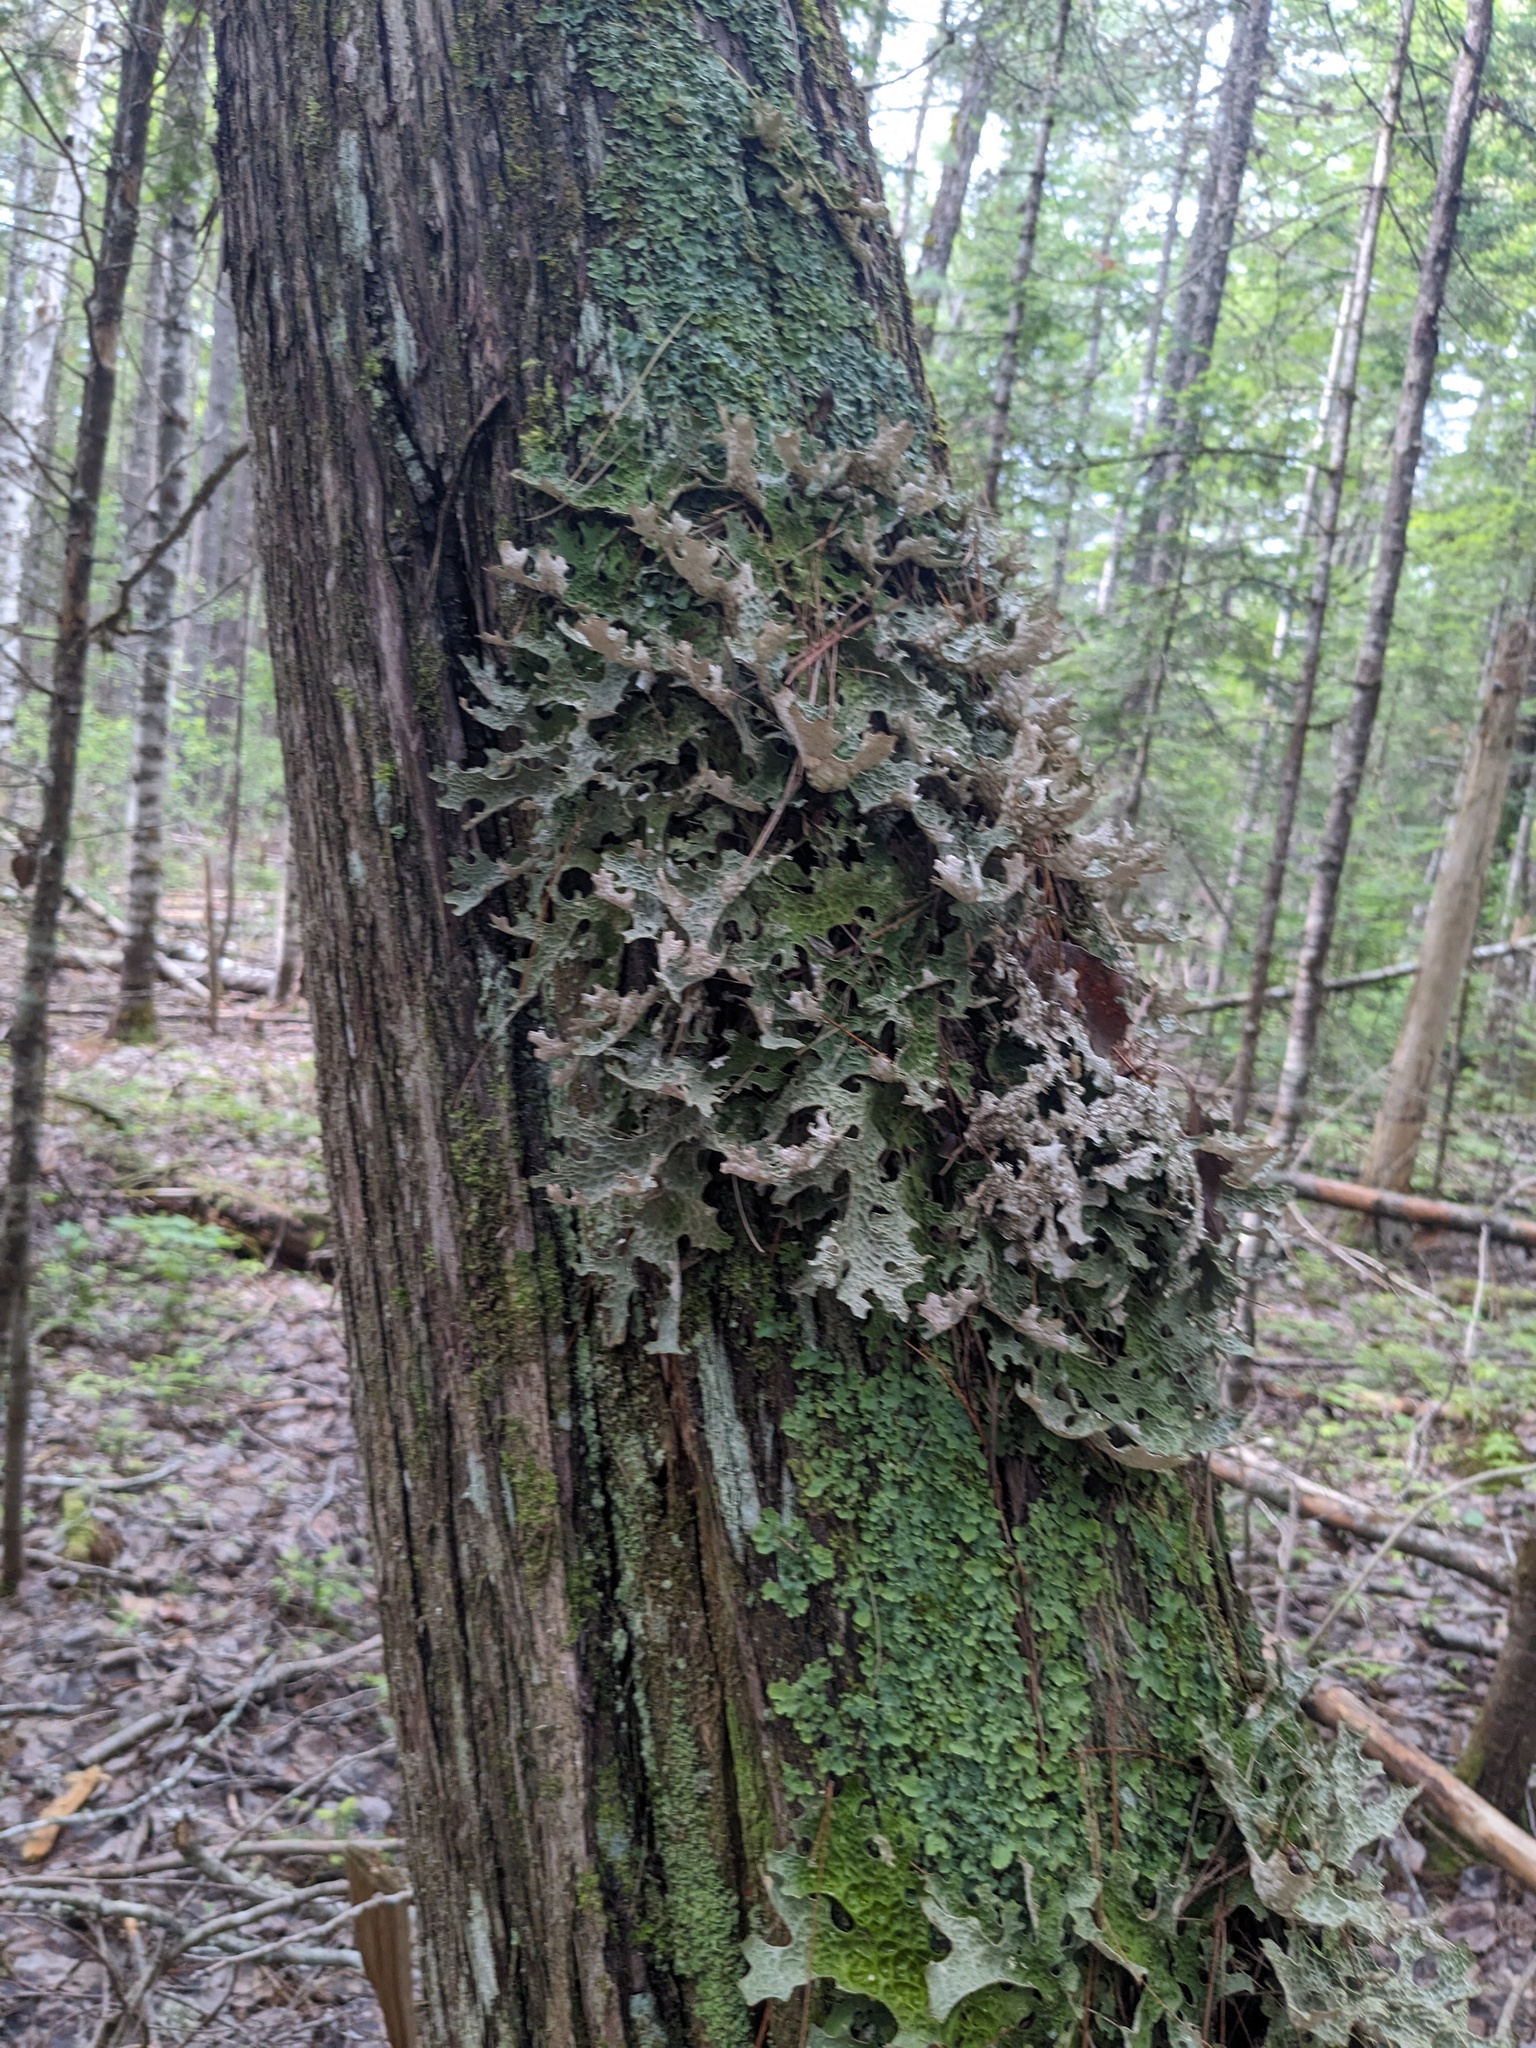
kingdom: Fungi
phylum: Ascomycota
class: Lecanoromycetes
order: Peltigerales
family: Lobariaceae
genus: Lobaria
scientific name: Lobaria pulmonaria
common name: Lungwort
